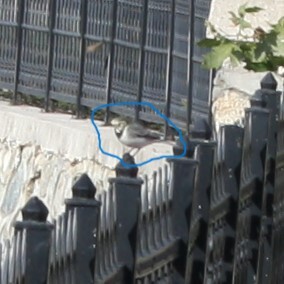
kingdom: Animalia
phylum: Chordata
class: Aves
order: Passeriformes
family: Motacillidae
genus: Motacilla
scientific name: Motacilla alba
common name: White wagtail
